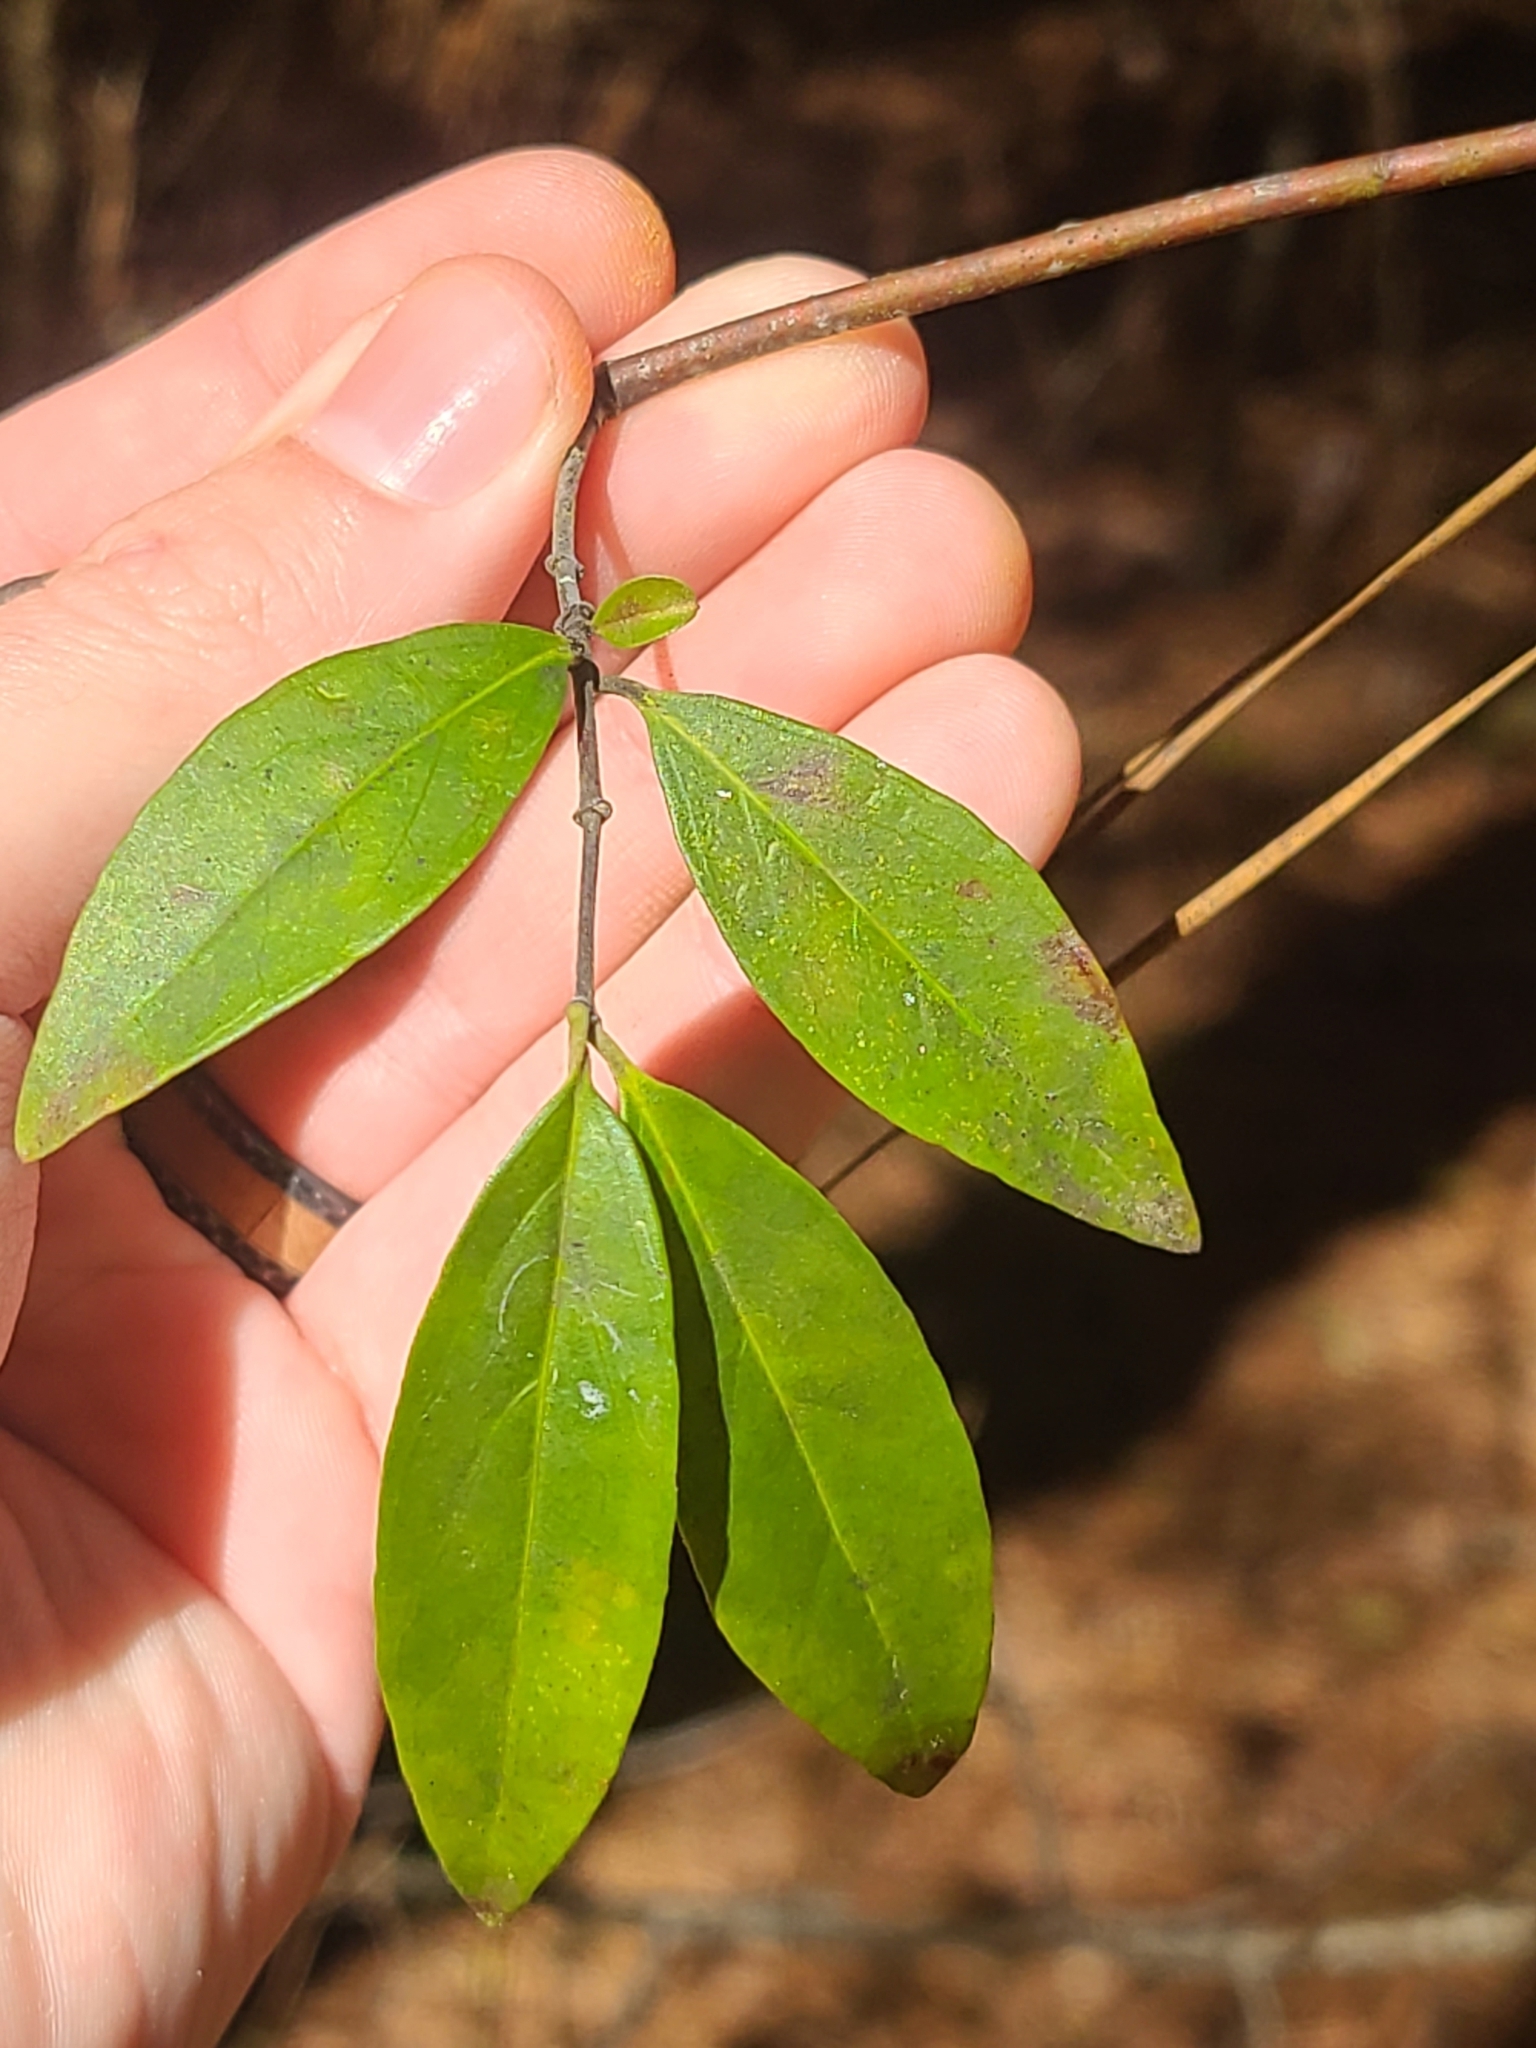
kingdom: Plantae
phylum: Tracheophyta
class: Magnoliopsida
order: Gentianales
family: Gelsemiaceae
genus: Gelsemium
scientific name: Gelsemium sempervirens
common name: Carolina-jasmine
